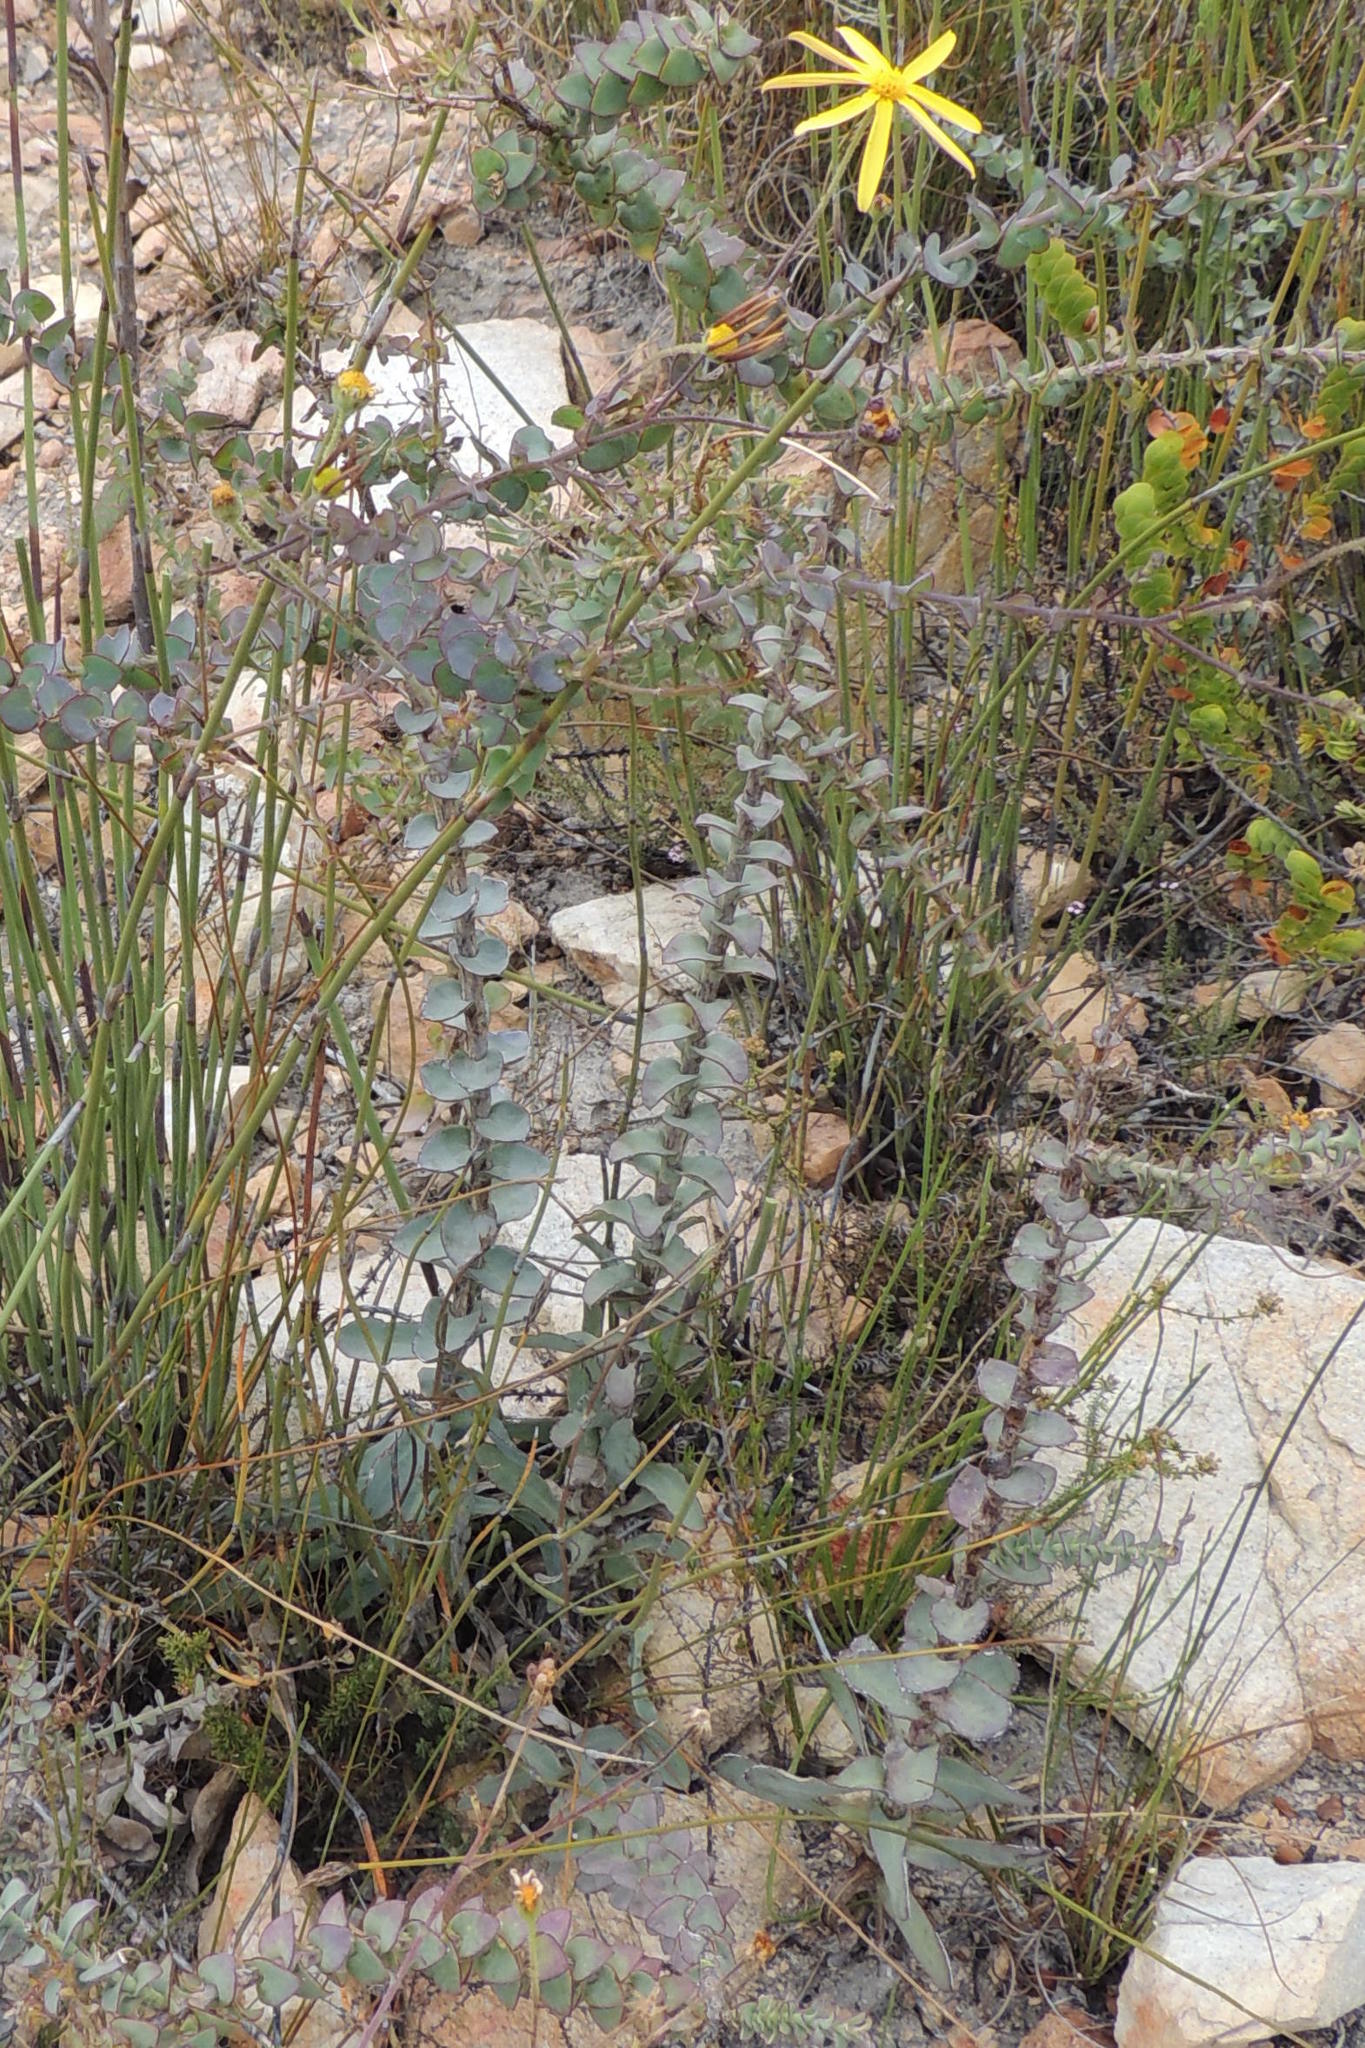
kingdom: Plantae
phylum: Tracheophyta
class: Magnoliopsida
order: Asterales
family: Asteraceae
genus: Osteospermum
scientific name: Osteospermum imbricatum
